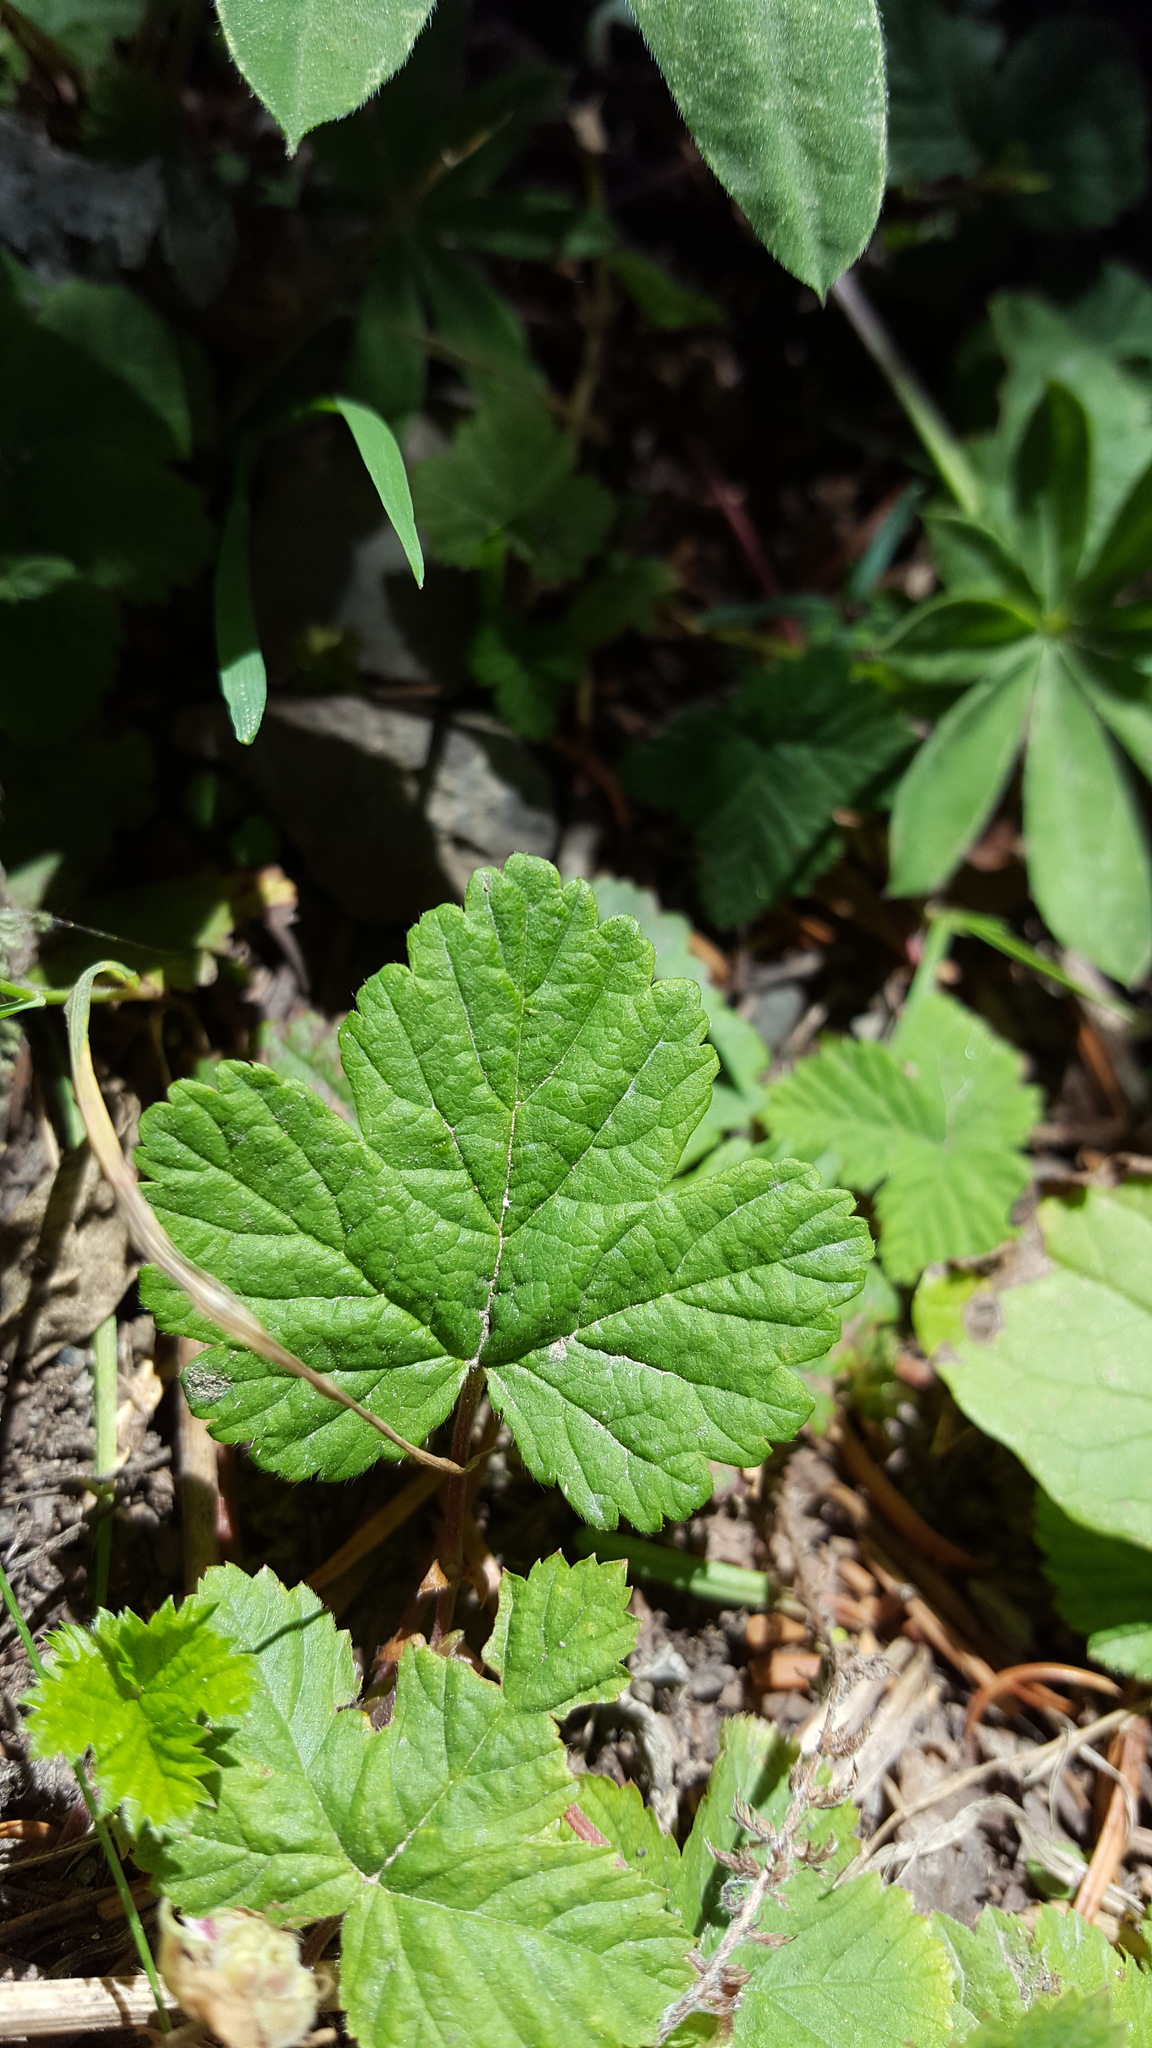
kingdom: Plantae
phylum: Tracheophyta
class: Magnoliopsida
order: Rosales
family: Rosaceae
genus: Rubus
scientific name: Rubus lasiococcus
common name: Dwarf bramble
